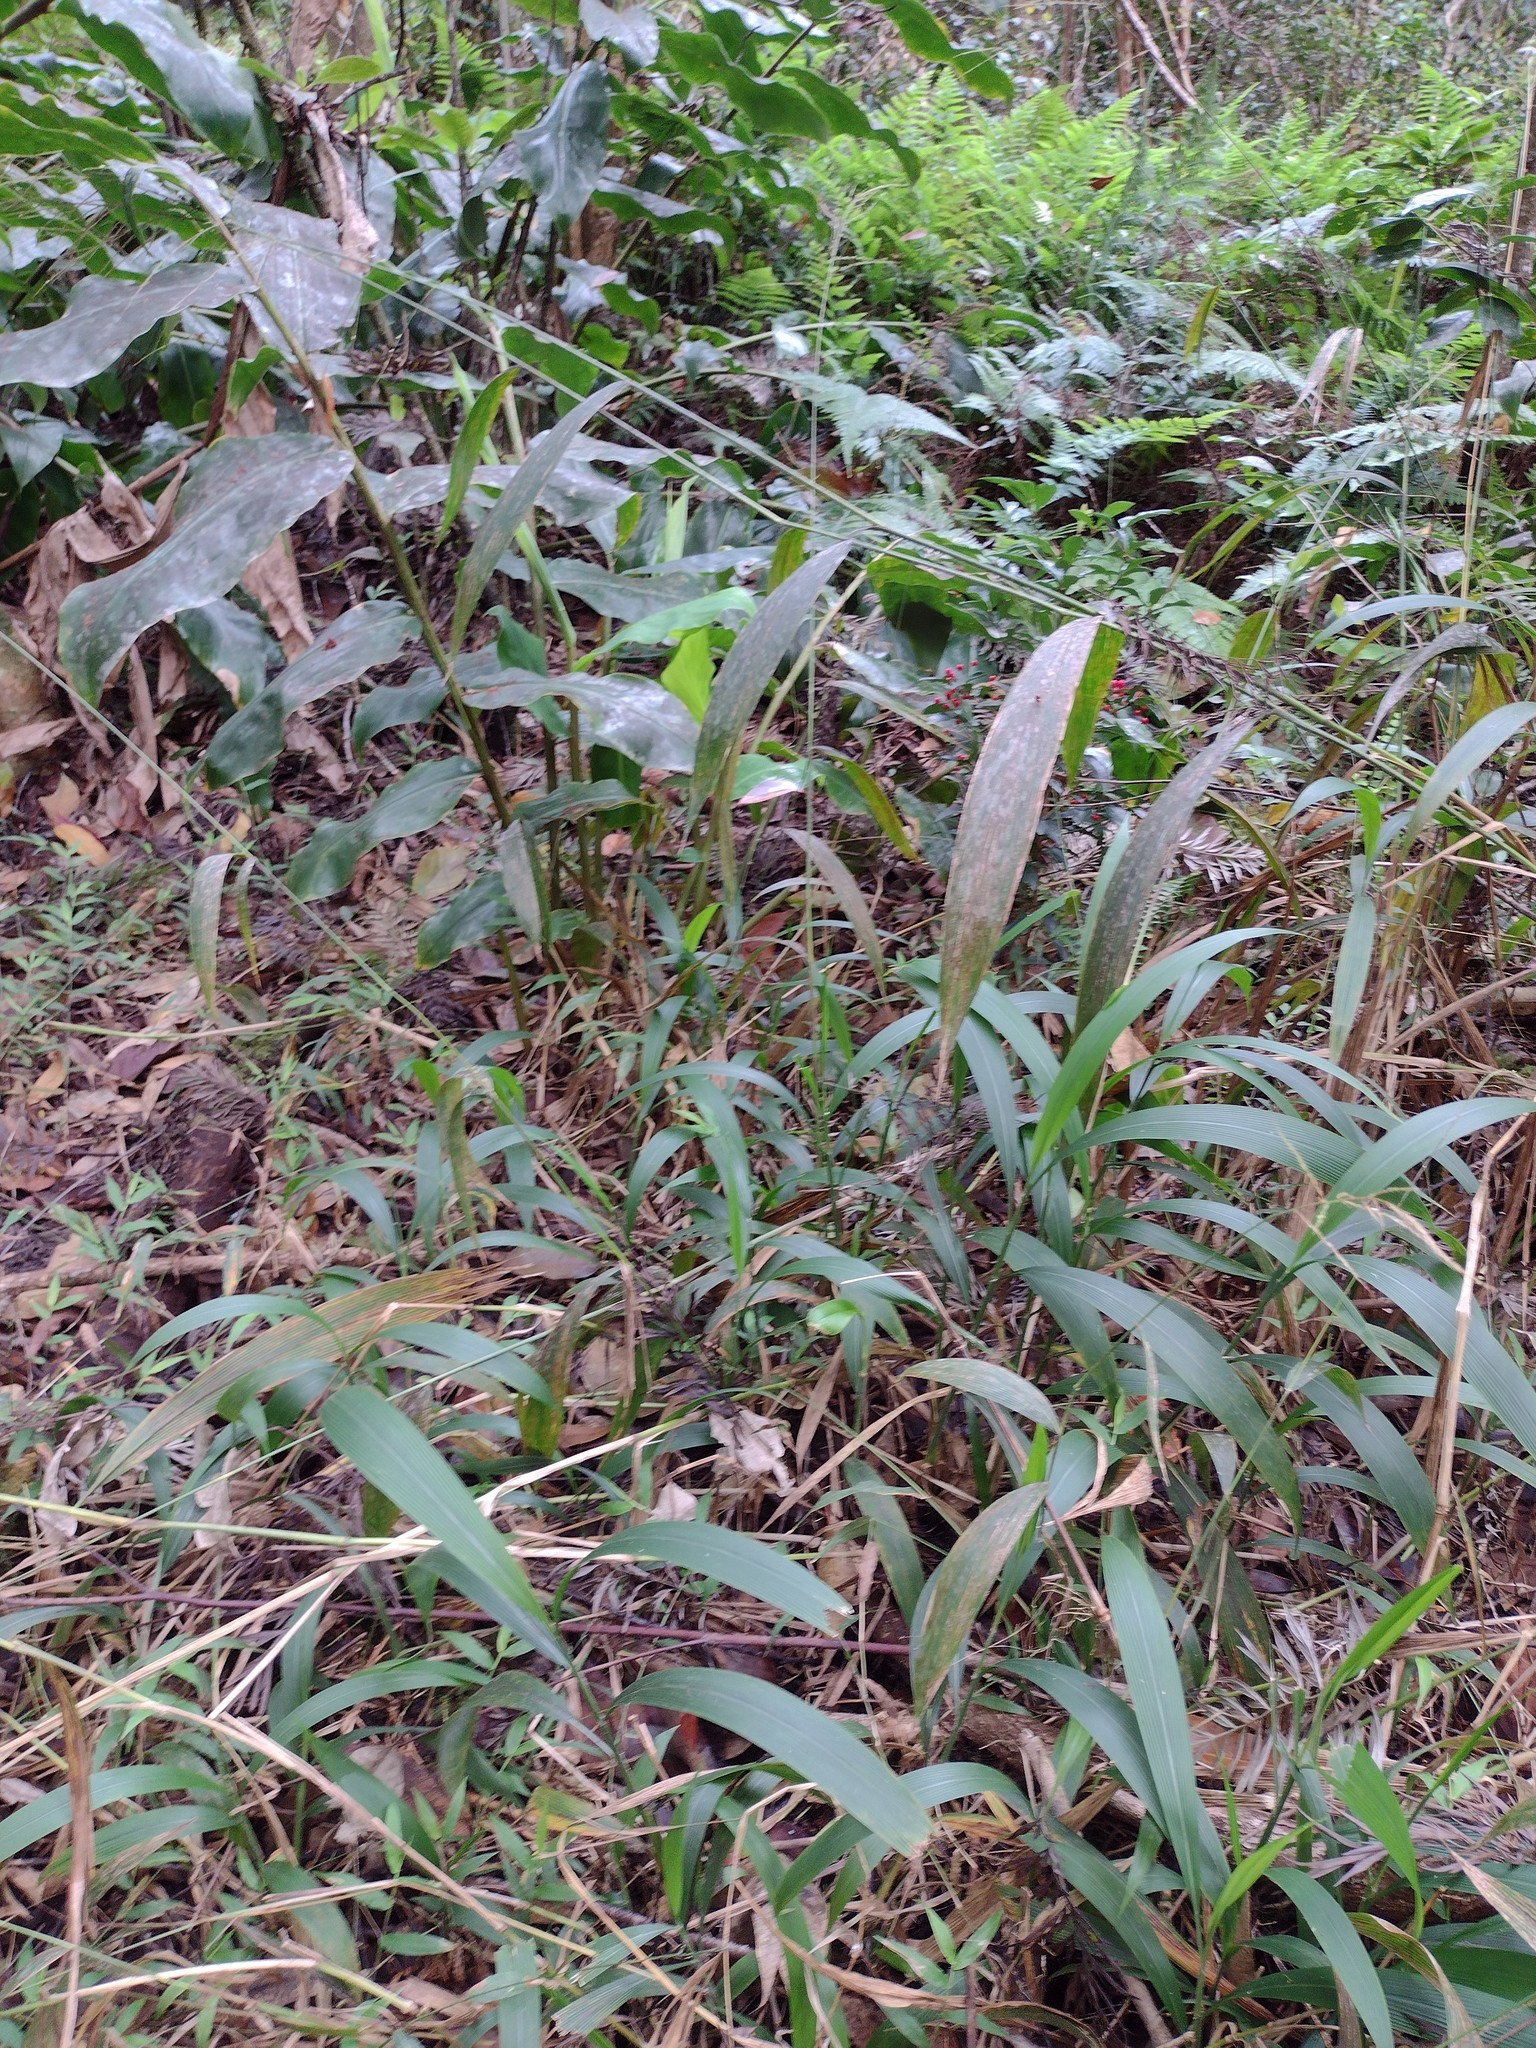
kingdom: Plantae
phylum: Tracheophyta
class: Liliopsida
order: Poales
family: Poaceae
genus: Setaria
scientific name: Setaria palmifolia
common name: Broadleaved bristlegrass
